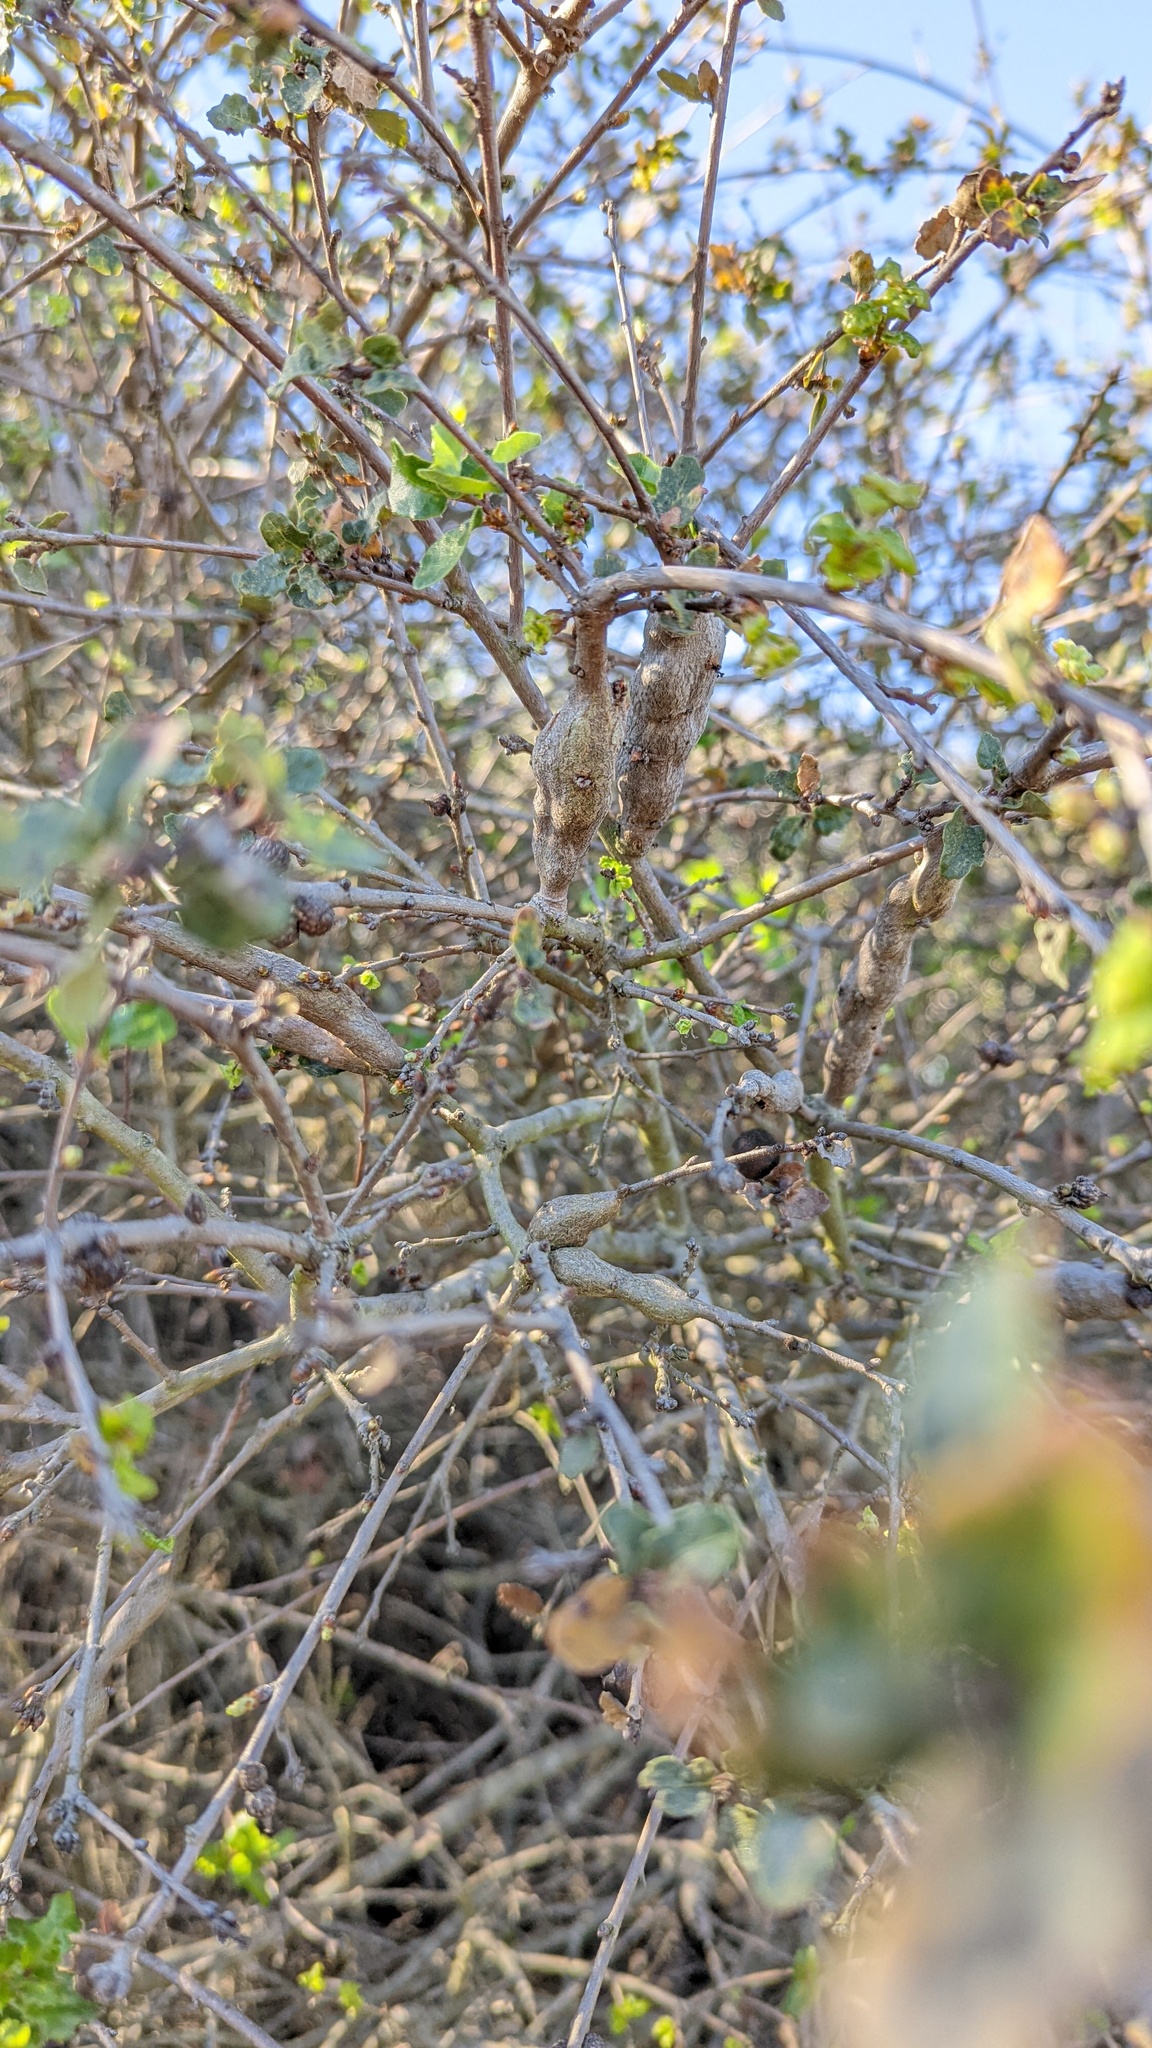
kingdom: Animalia
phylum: Arthropoda
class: Insecta
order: Hymenoptera
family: Cynipidae
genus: Andricus
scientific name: Andricus
